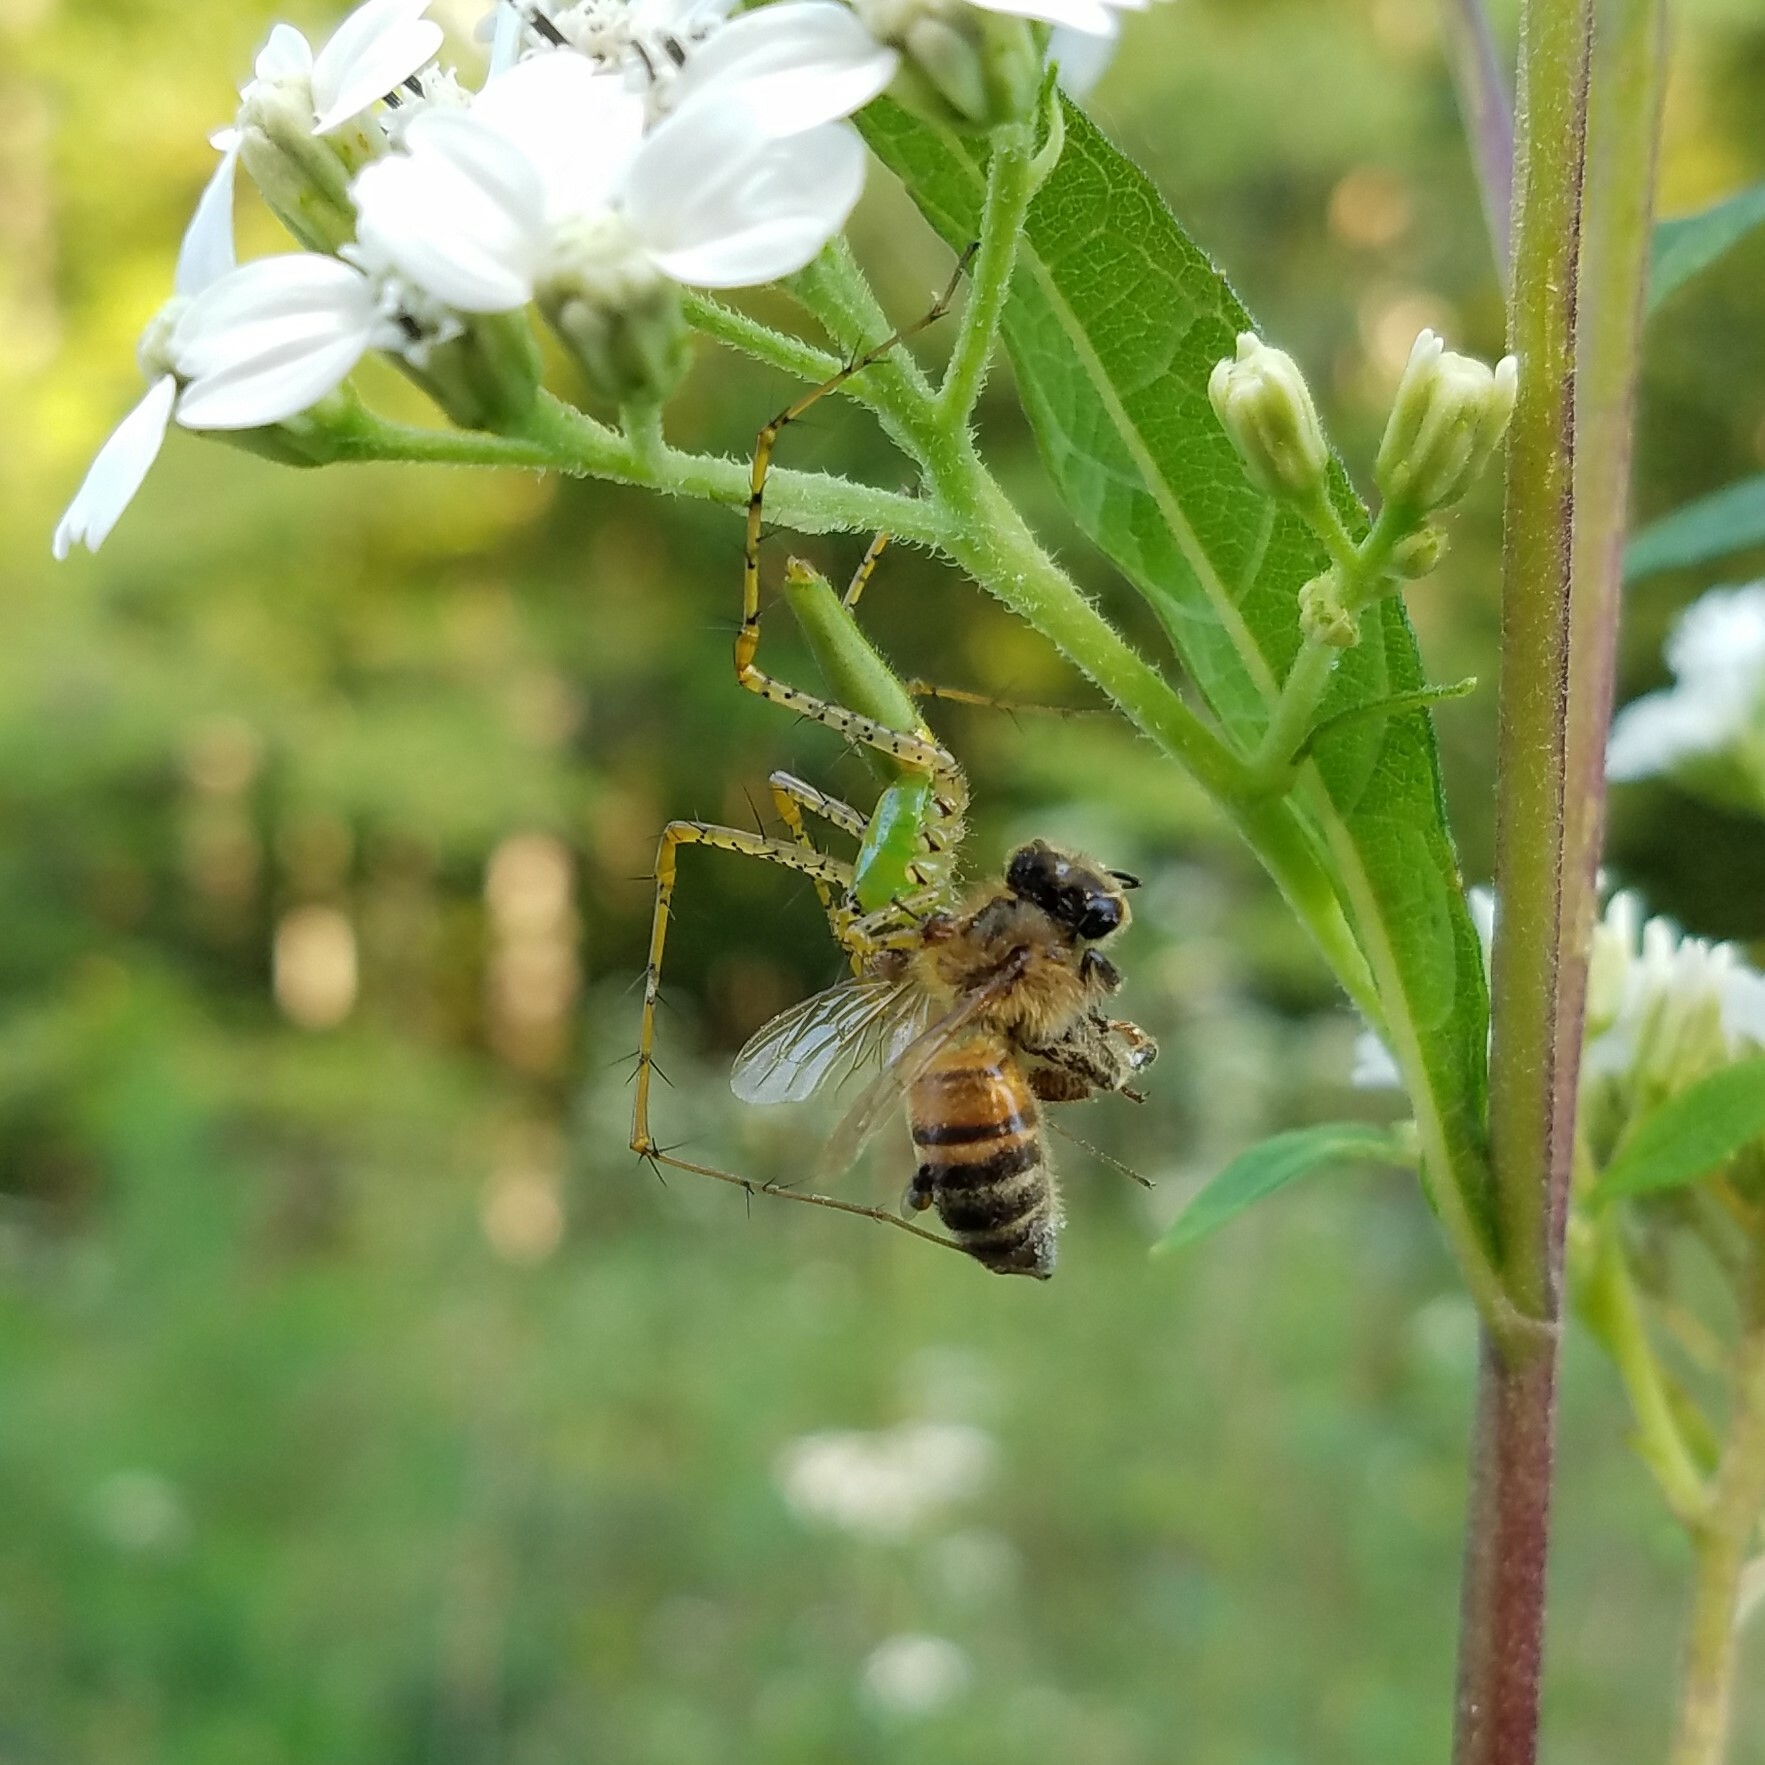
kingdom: Animalia
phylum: Arthropoda
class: Arachnida
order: Araneae
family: Oxyopidae
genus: Peucetia
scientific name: Peucetia viridans
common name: Lynx spiders
